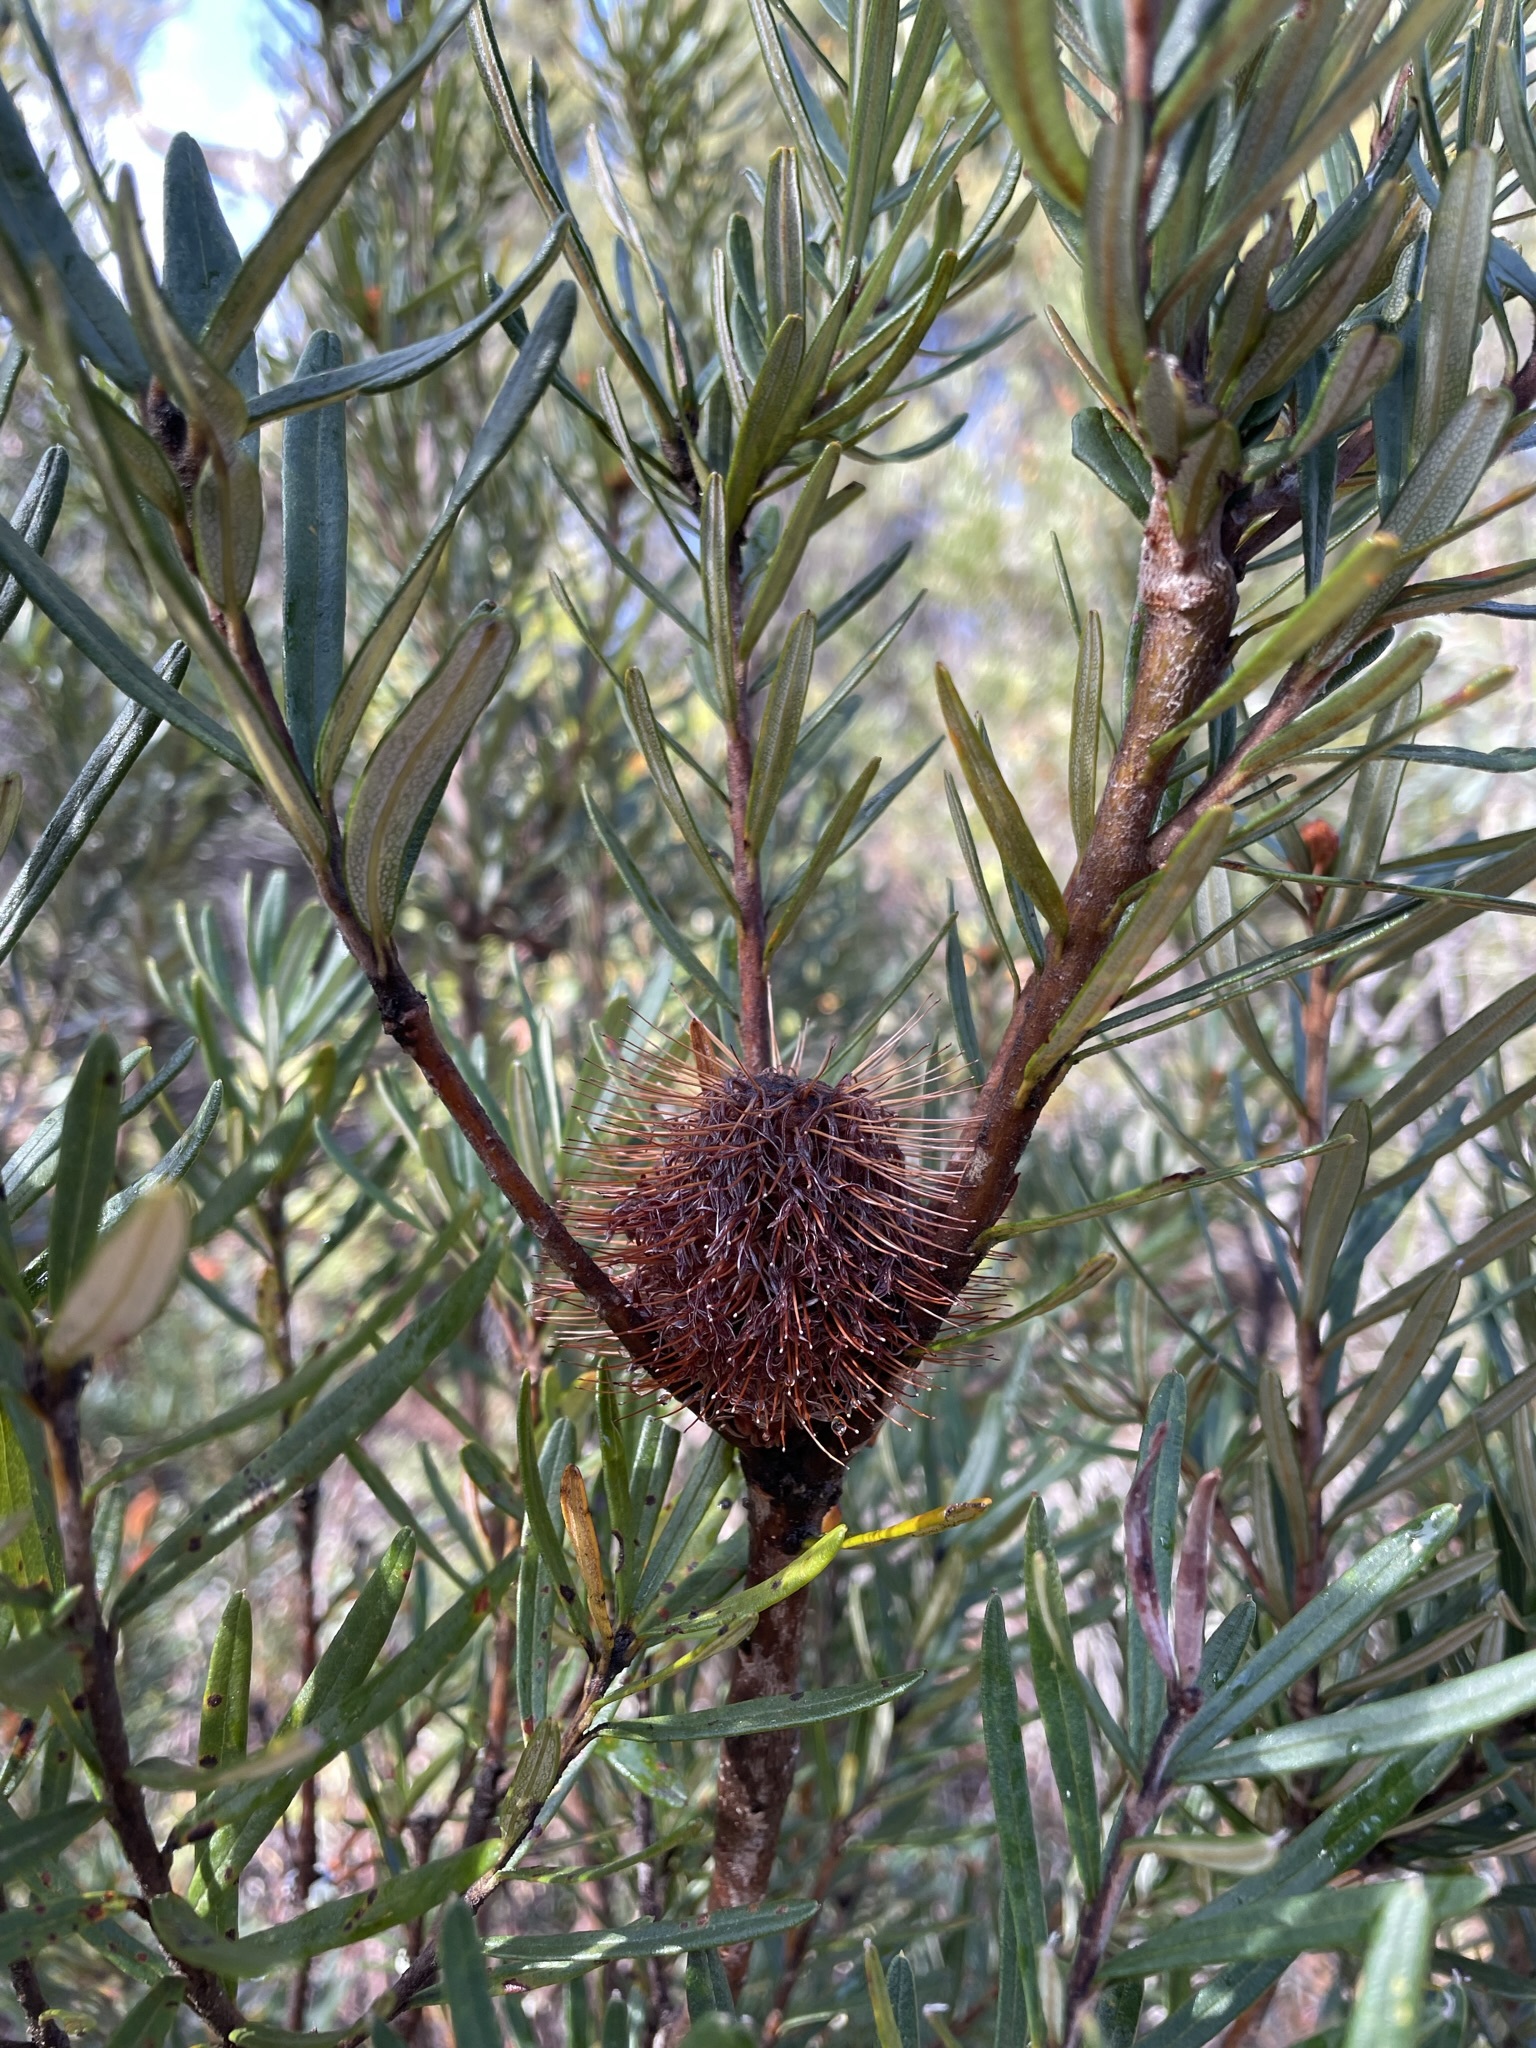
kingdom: Plantae
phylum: Tracheophyta
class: Magnoliopsida
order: Proteales
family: Proteaceae
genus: Banksia
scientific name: Banksia marginata
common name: Silver banksia
